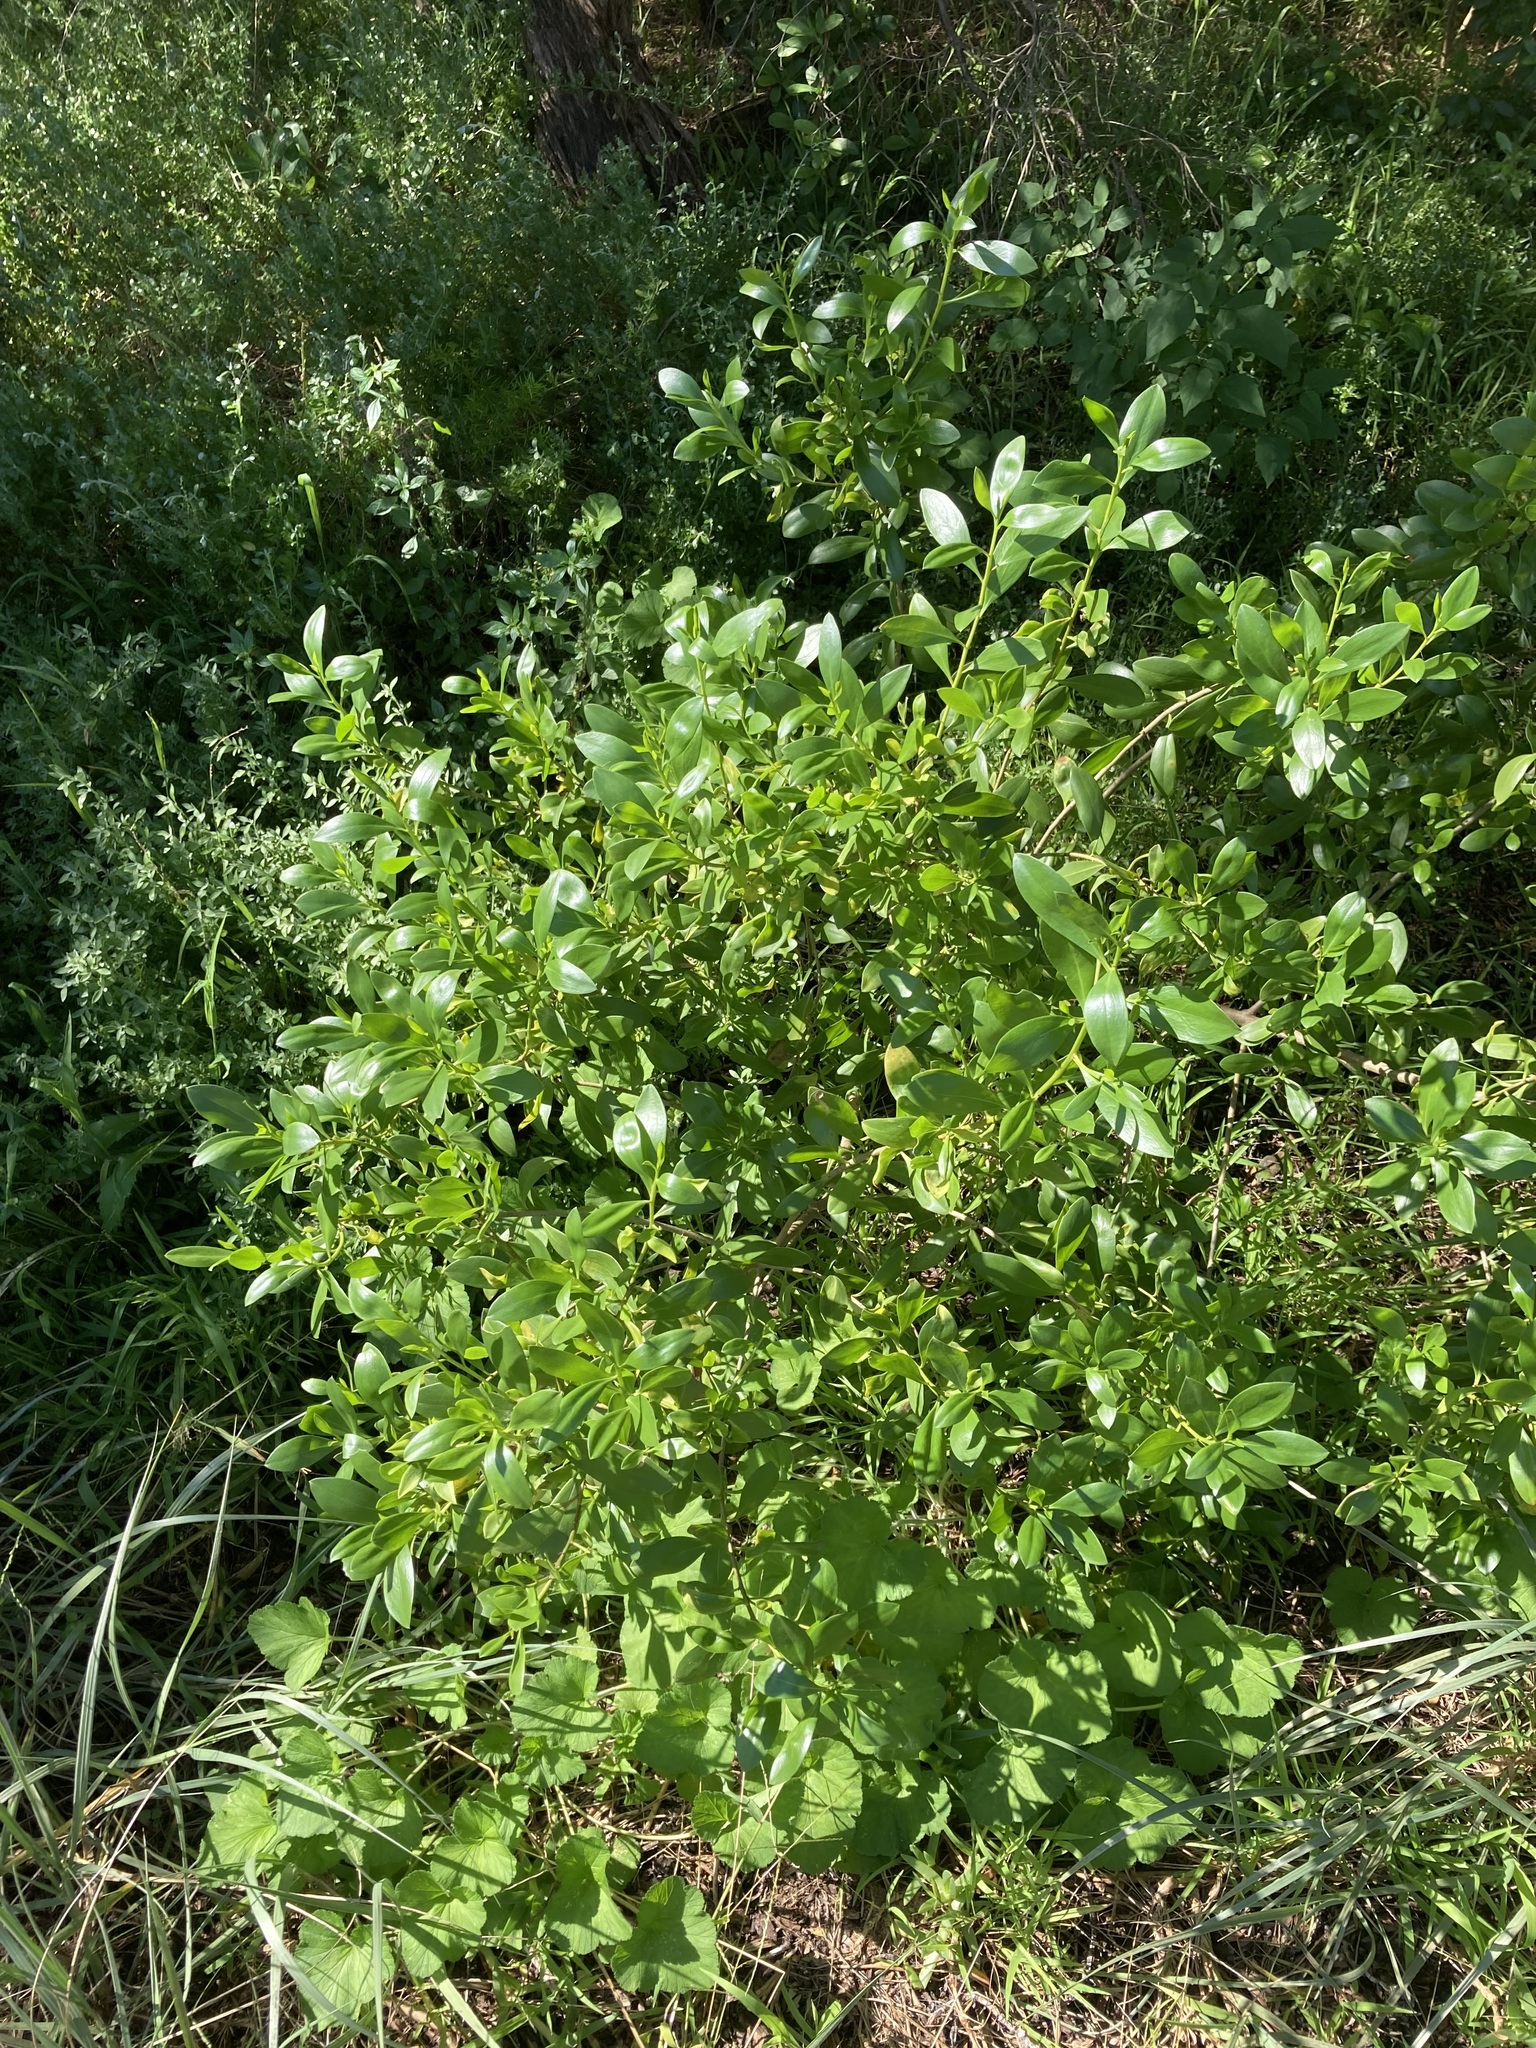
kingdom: Plantae
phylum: Tracheophyta
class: Magnoliopsida
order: Lamiales
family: Scrophulariaceae
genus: Myoporum
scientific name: Myoporum boninense
